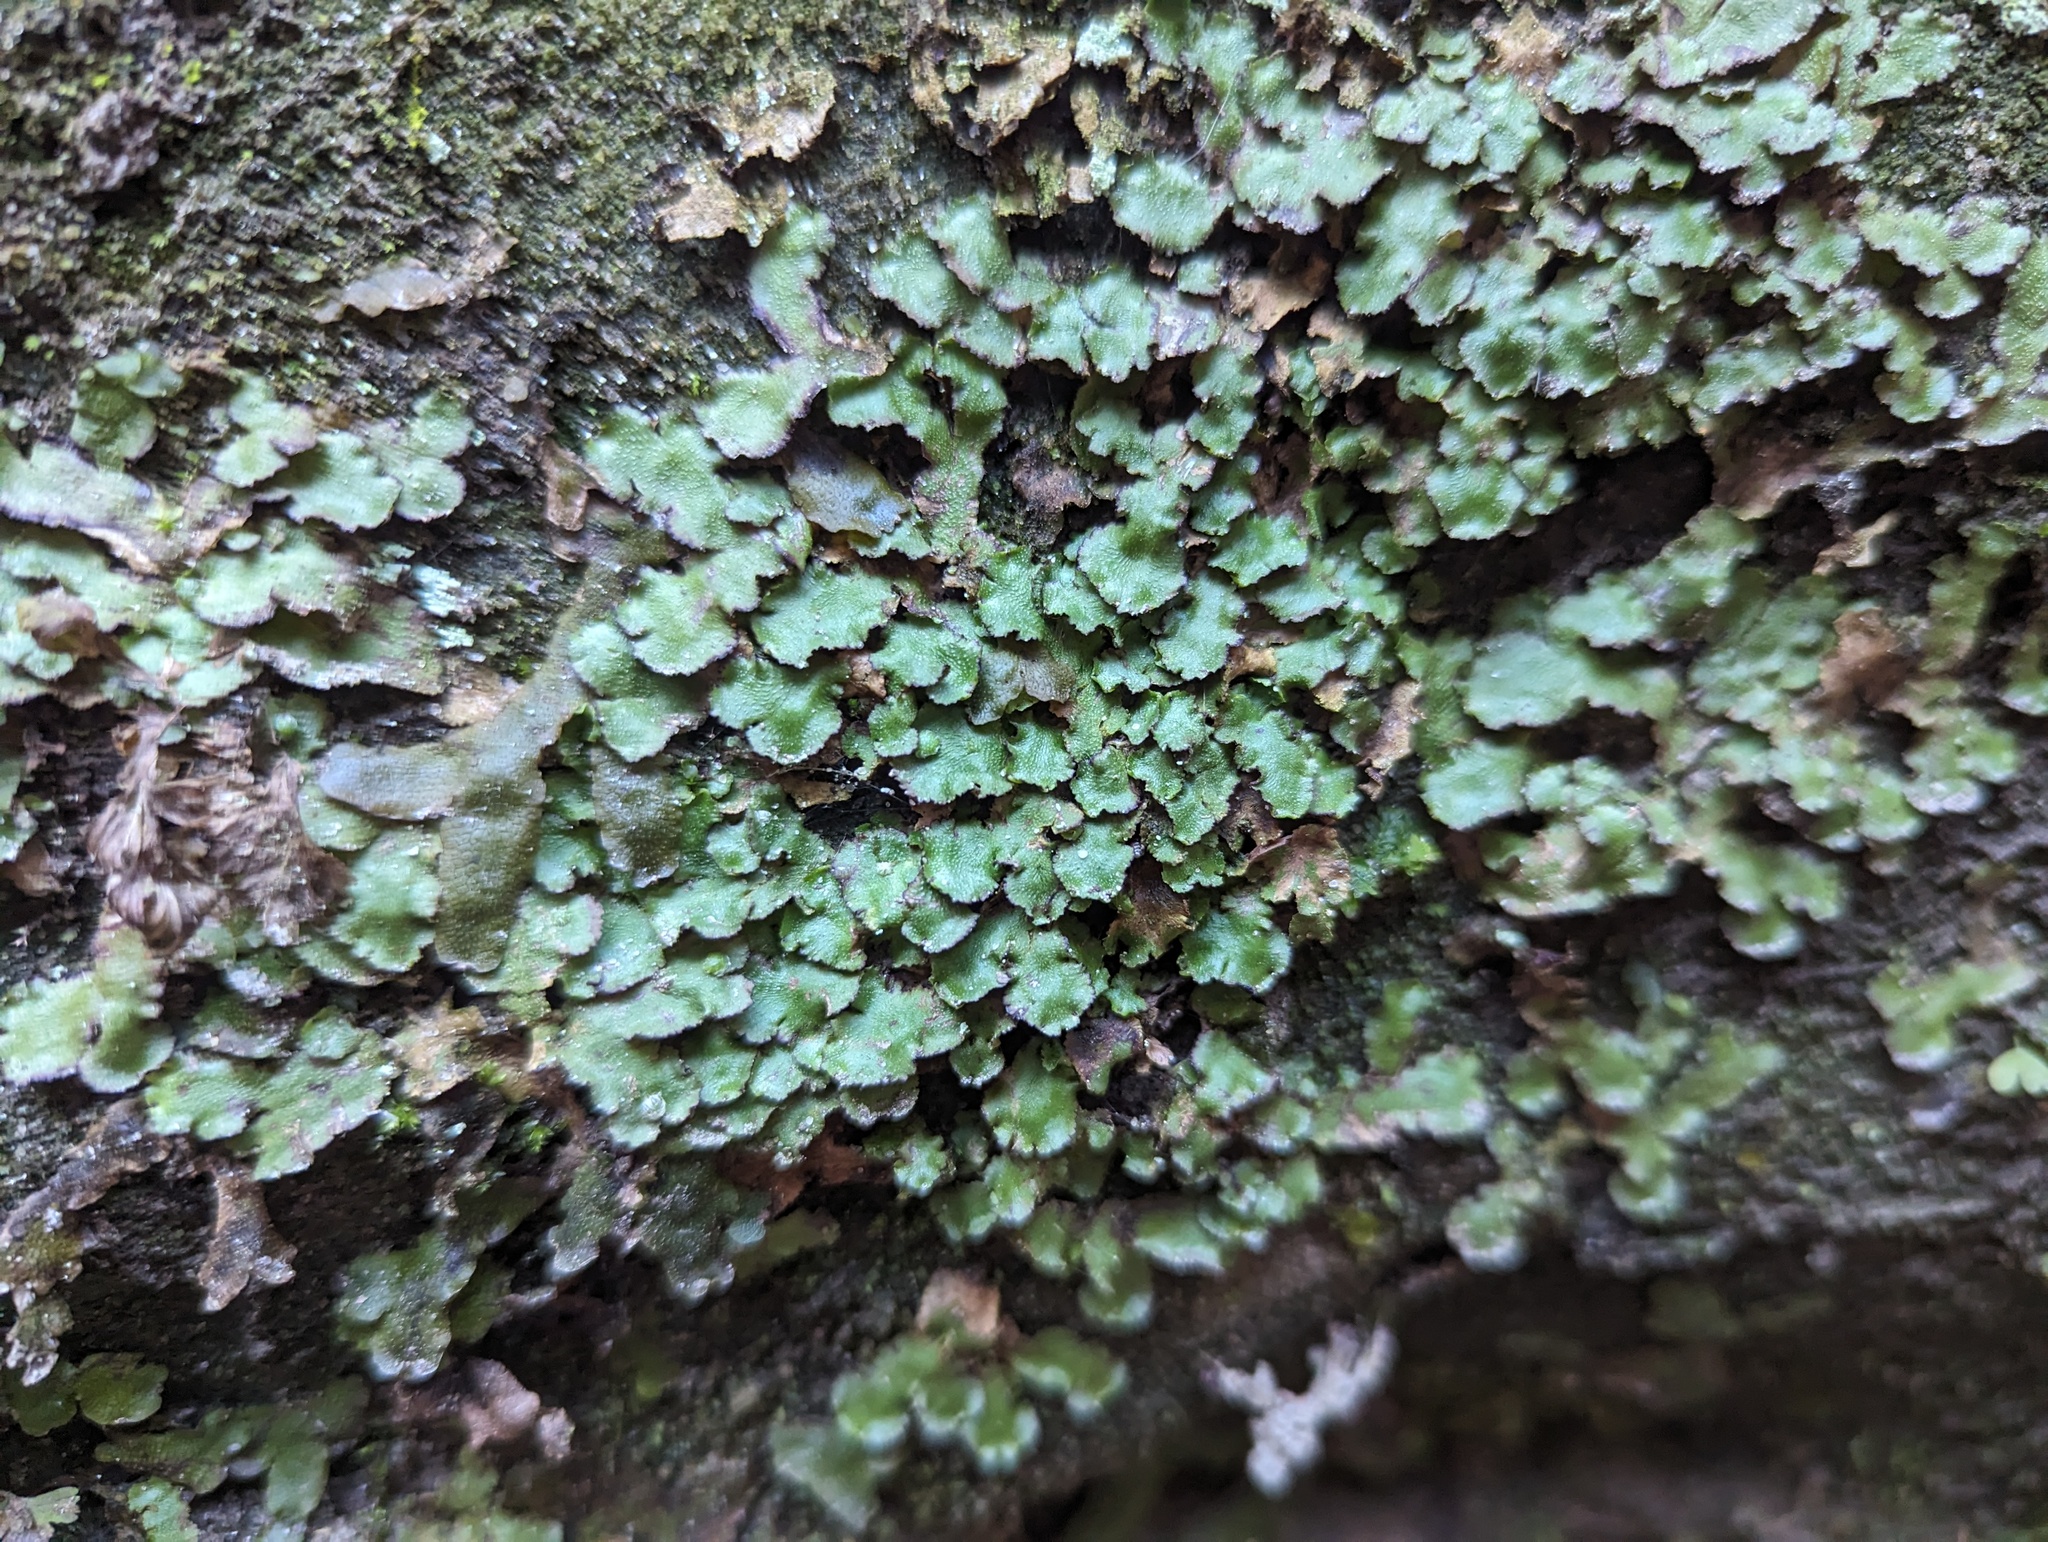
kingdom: Plantae
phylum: Marchantiophyta
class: Marchantiopsida
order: Marchantiales
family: Aytoniaceae
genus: Reboulia
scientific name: Reboulia hemisphaerica
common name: Purple-margined liverwort
